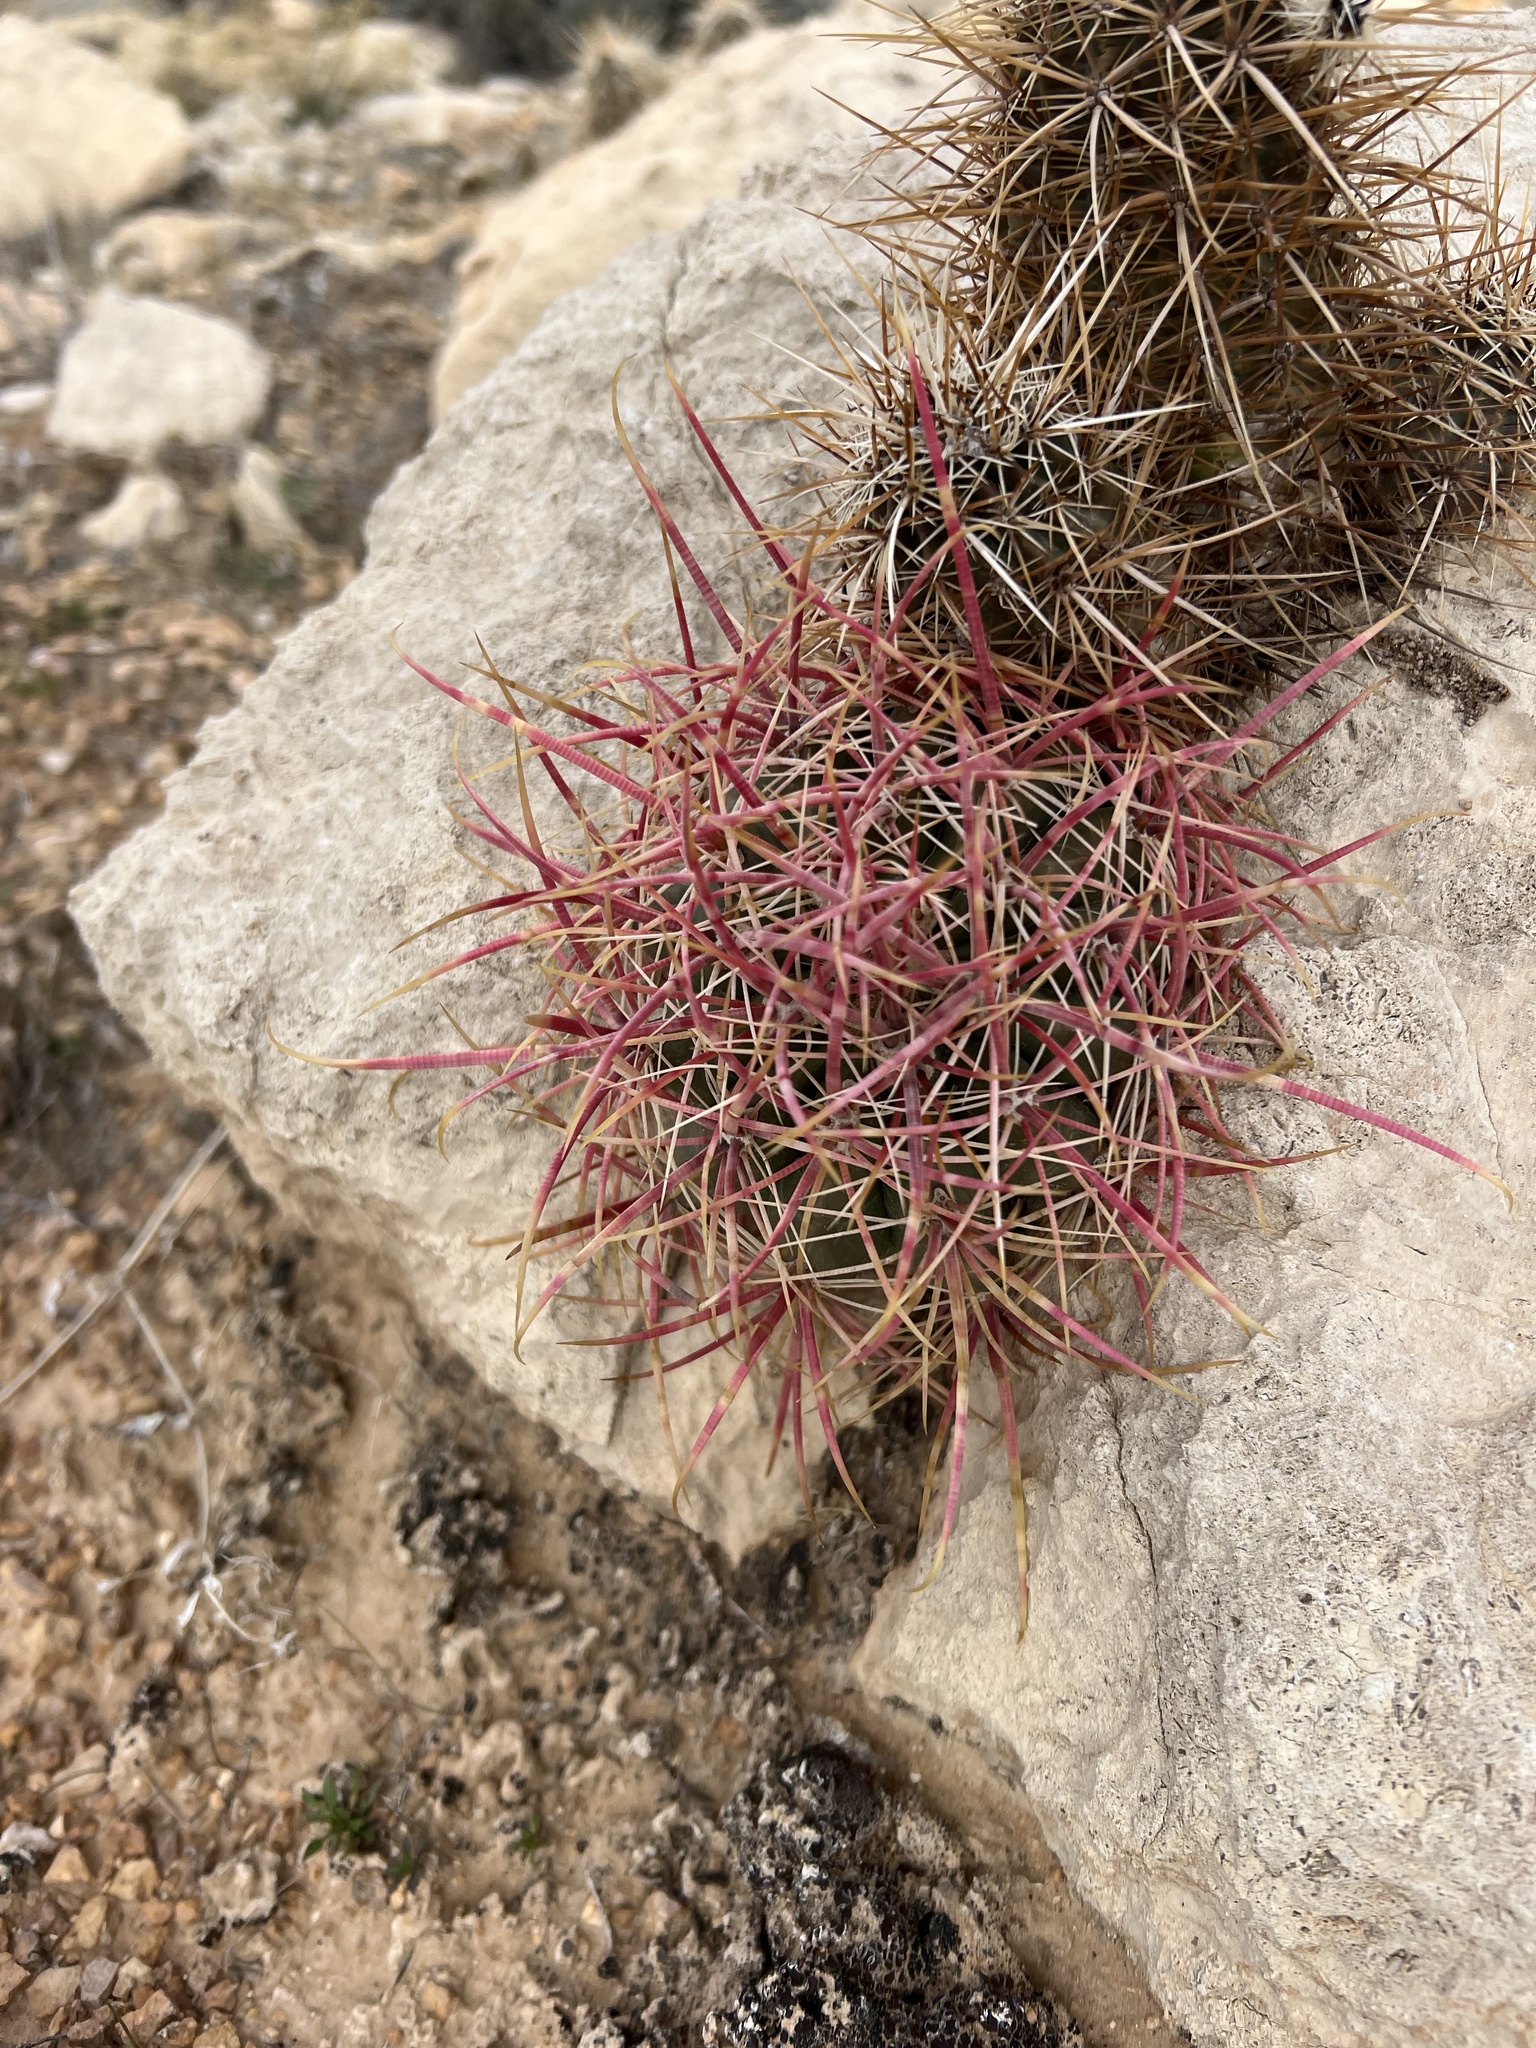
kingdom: Plantae
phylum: Tracheophyta
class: Magnoliopsida
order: Caryophyllales
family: Cactaceae
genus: Ferocactus
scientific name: Ferocactus cylindraceus
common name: California barrel cactus
